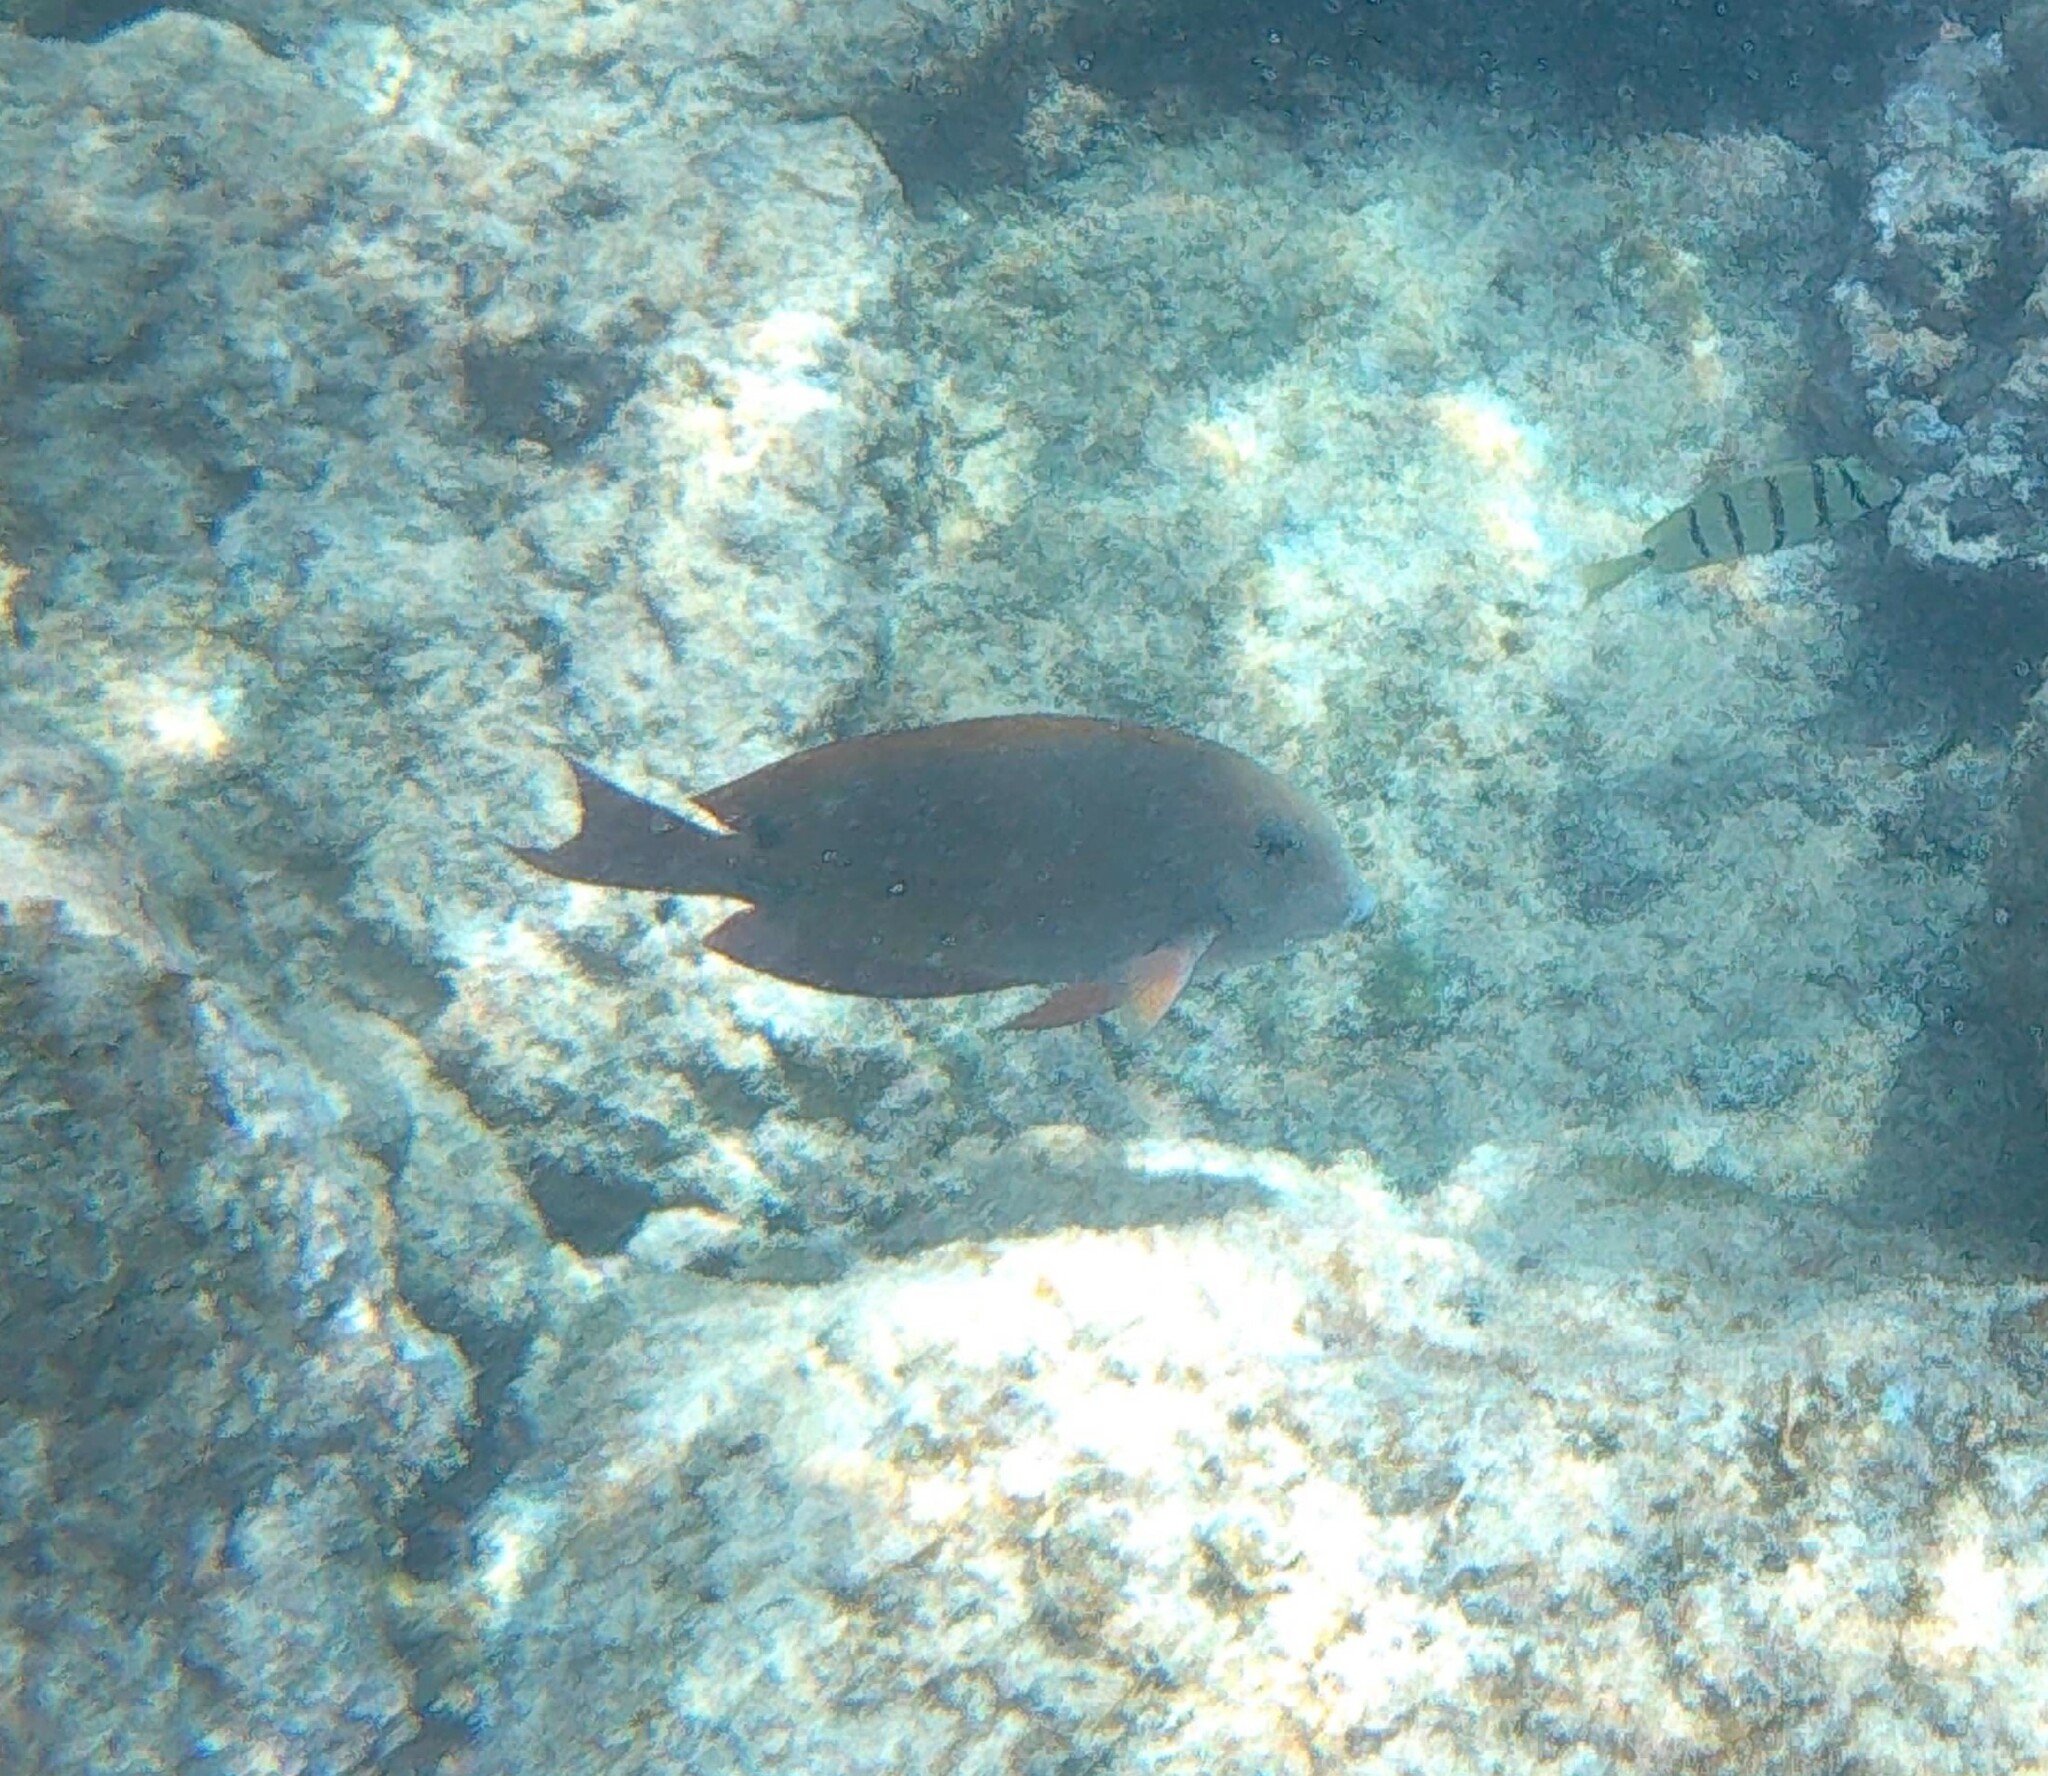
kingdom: Animalia
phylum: Chordata
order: Perciformes
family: Acanthuridae
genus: Acanthurus
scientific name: Acanthurus nigrofuscus
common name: Blackspot surgeonfish
